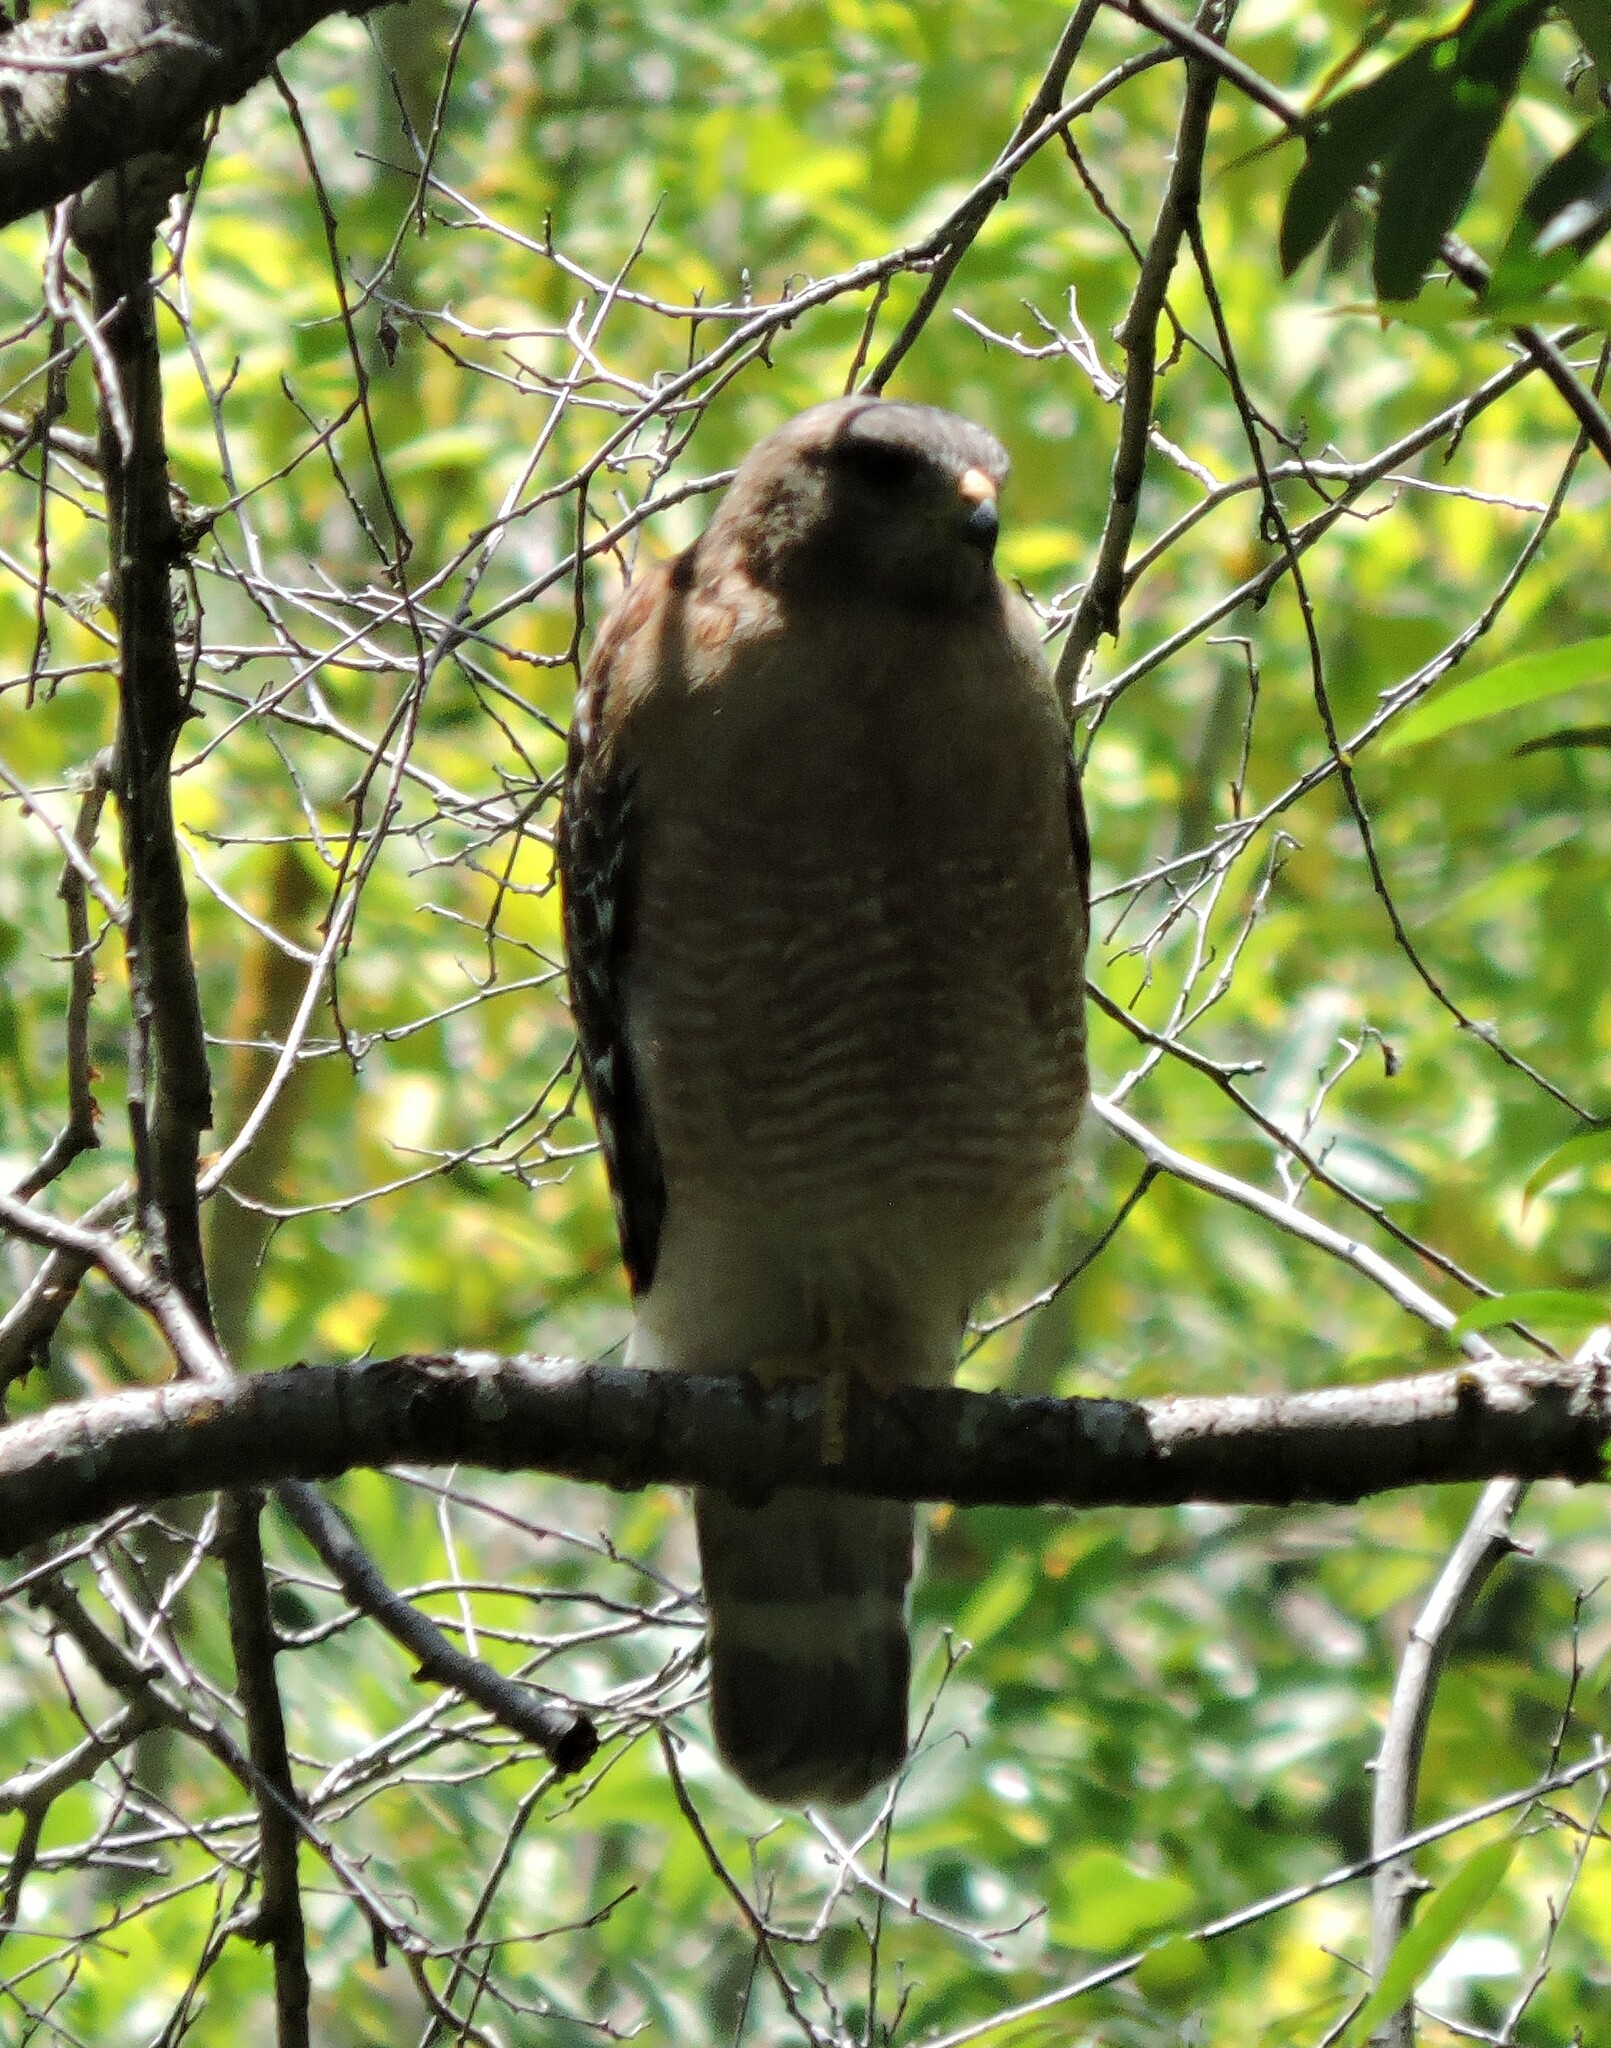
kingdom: Animalia
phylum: Chordata
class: Aves
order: Accipitriformes
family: Accipitridae
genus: Buteo
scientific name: Buteo lineatus
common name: Red-shouldered hawk
